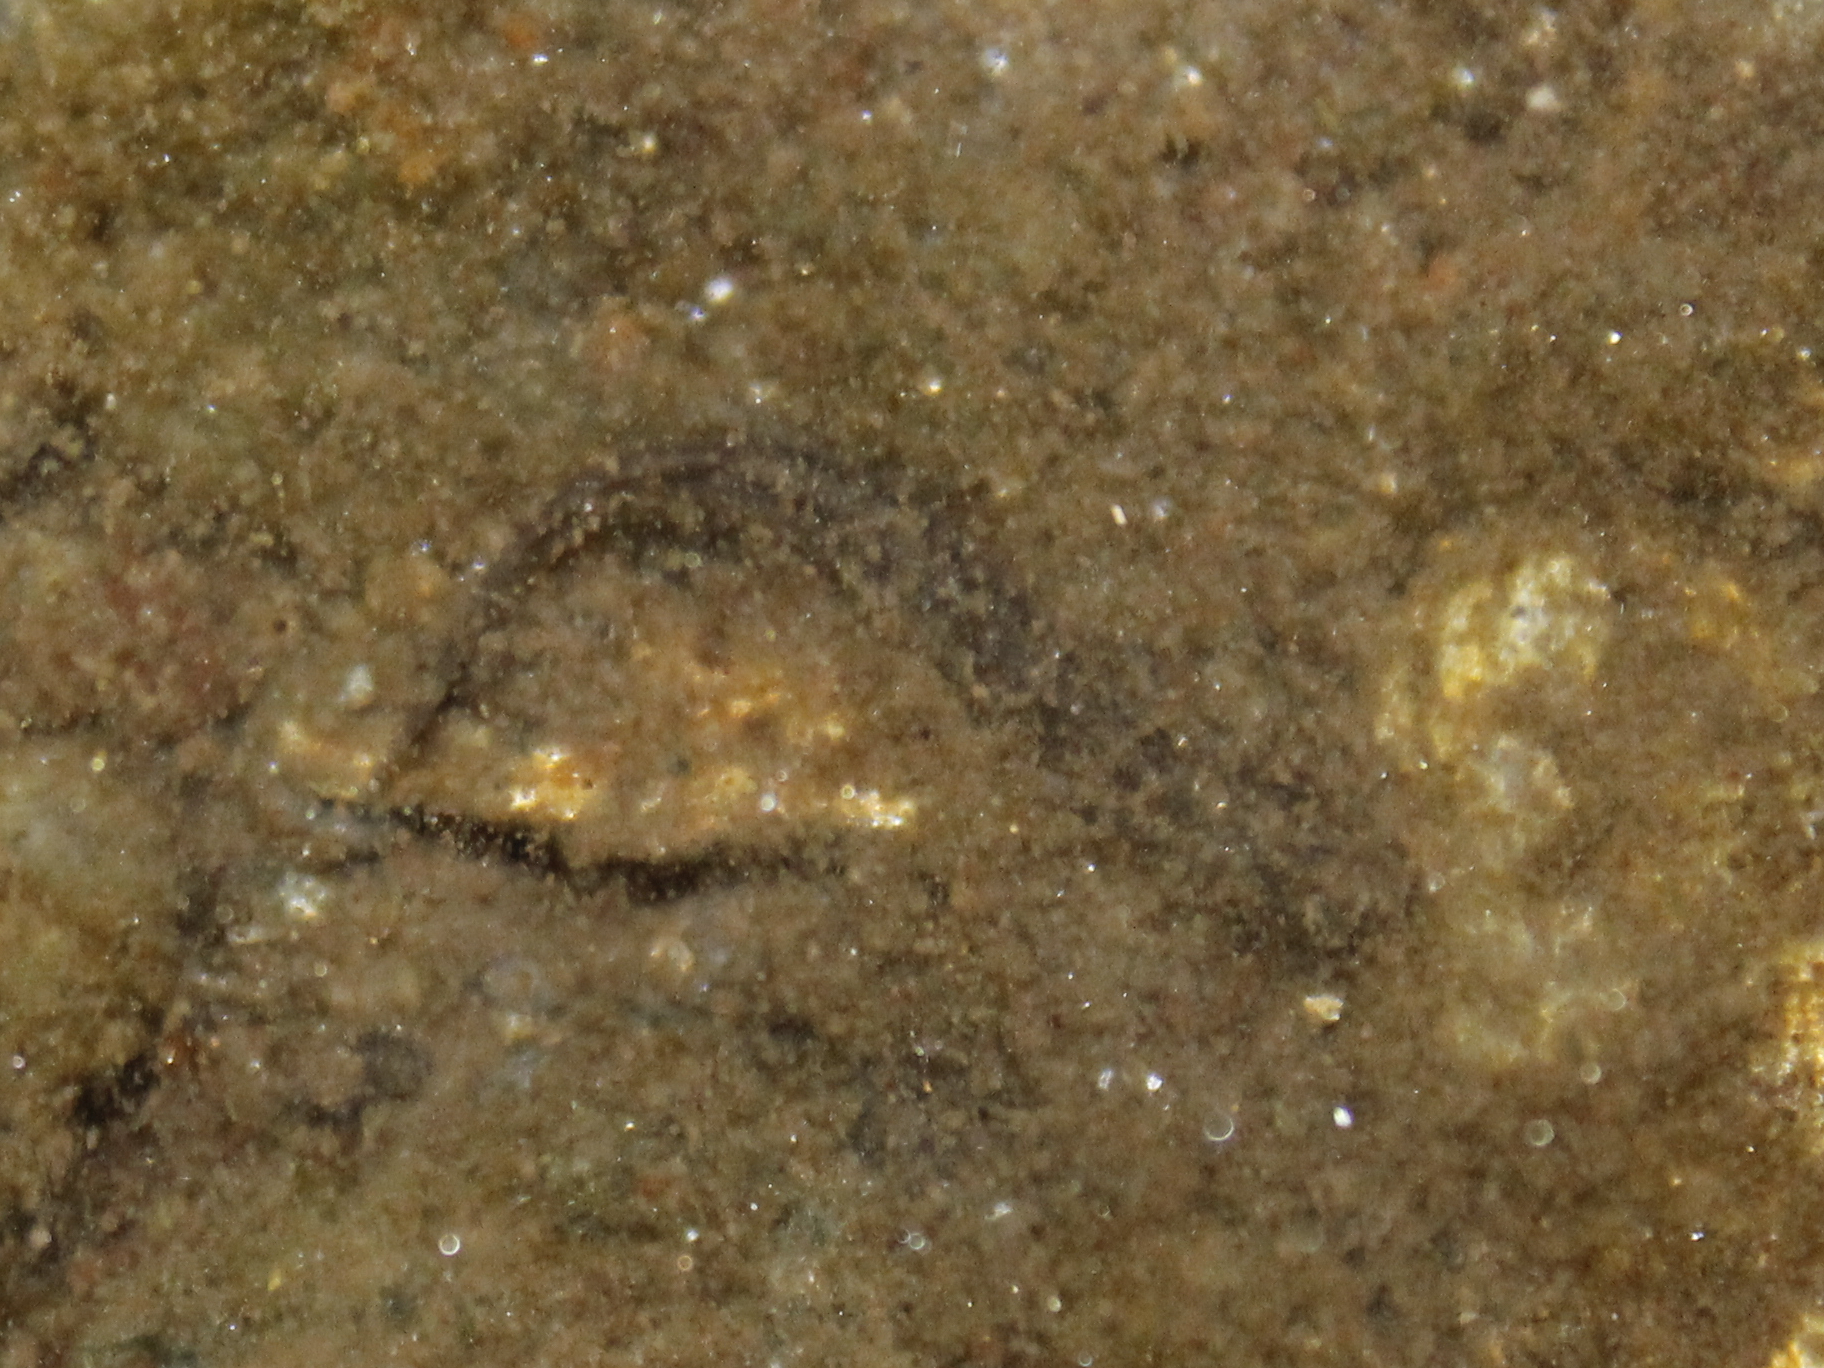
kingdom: Animalia
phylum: Chordata
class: Amphibia
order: Caudata
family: Plethodontidae
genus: Eurycea
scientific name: Eurycea bislineata
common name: Northern two-lined salamander
